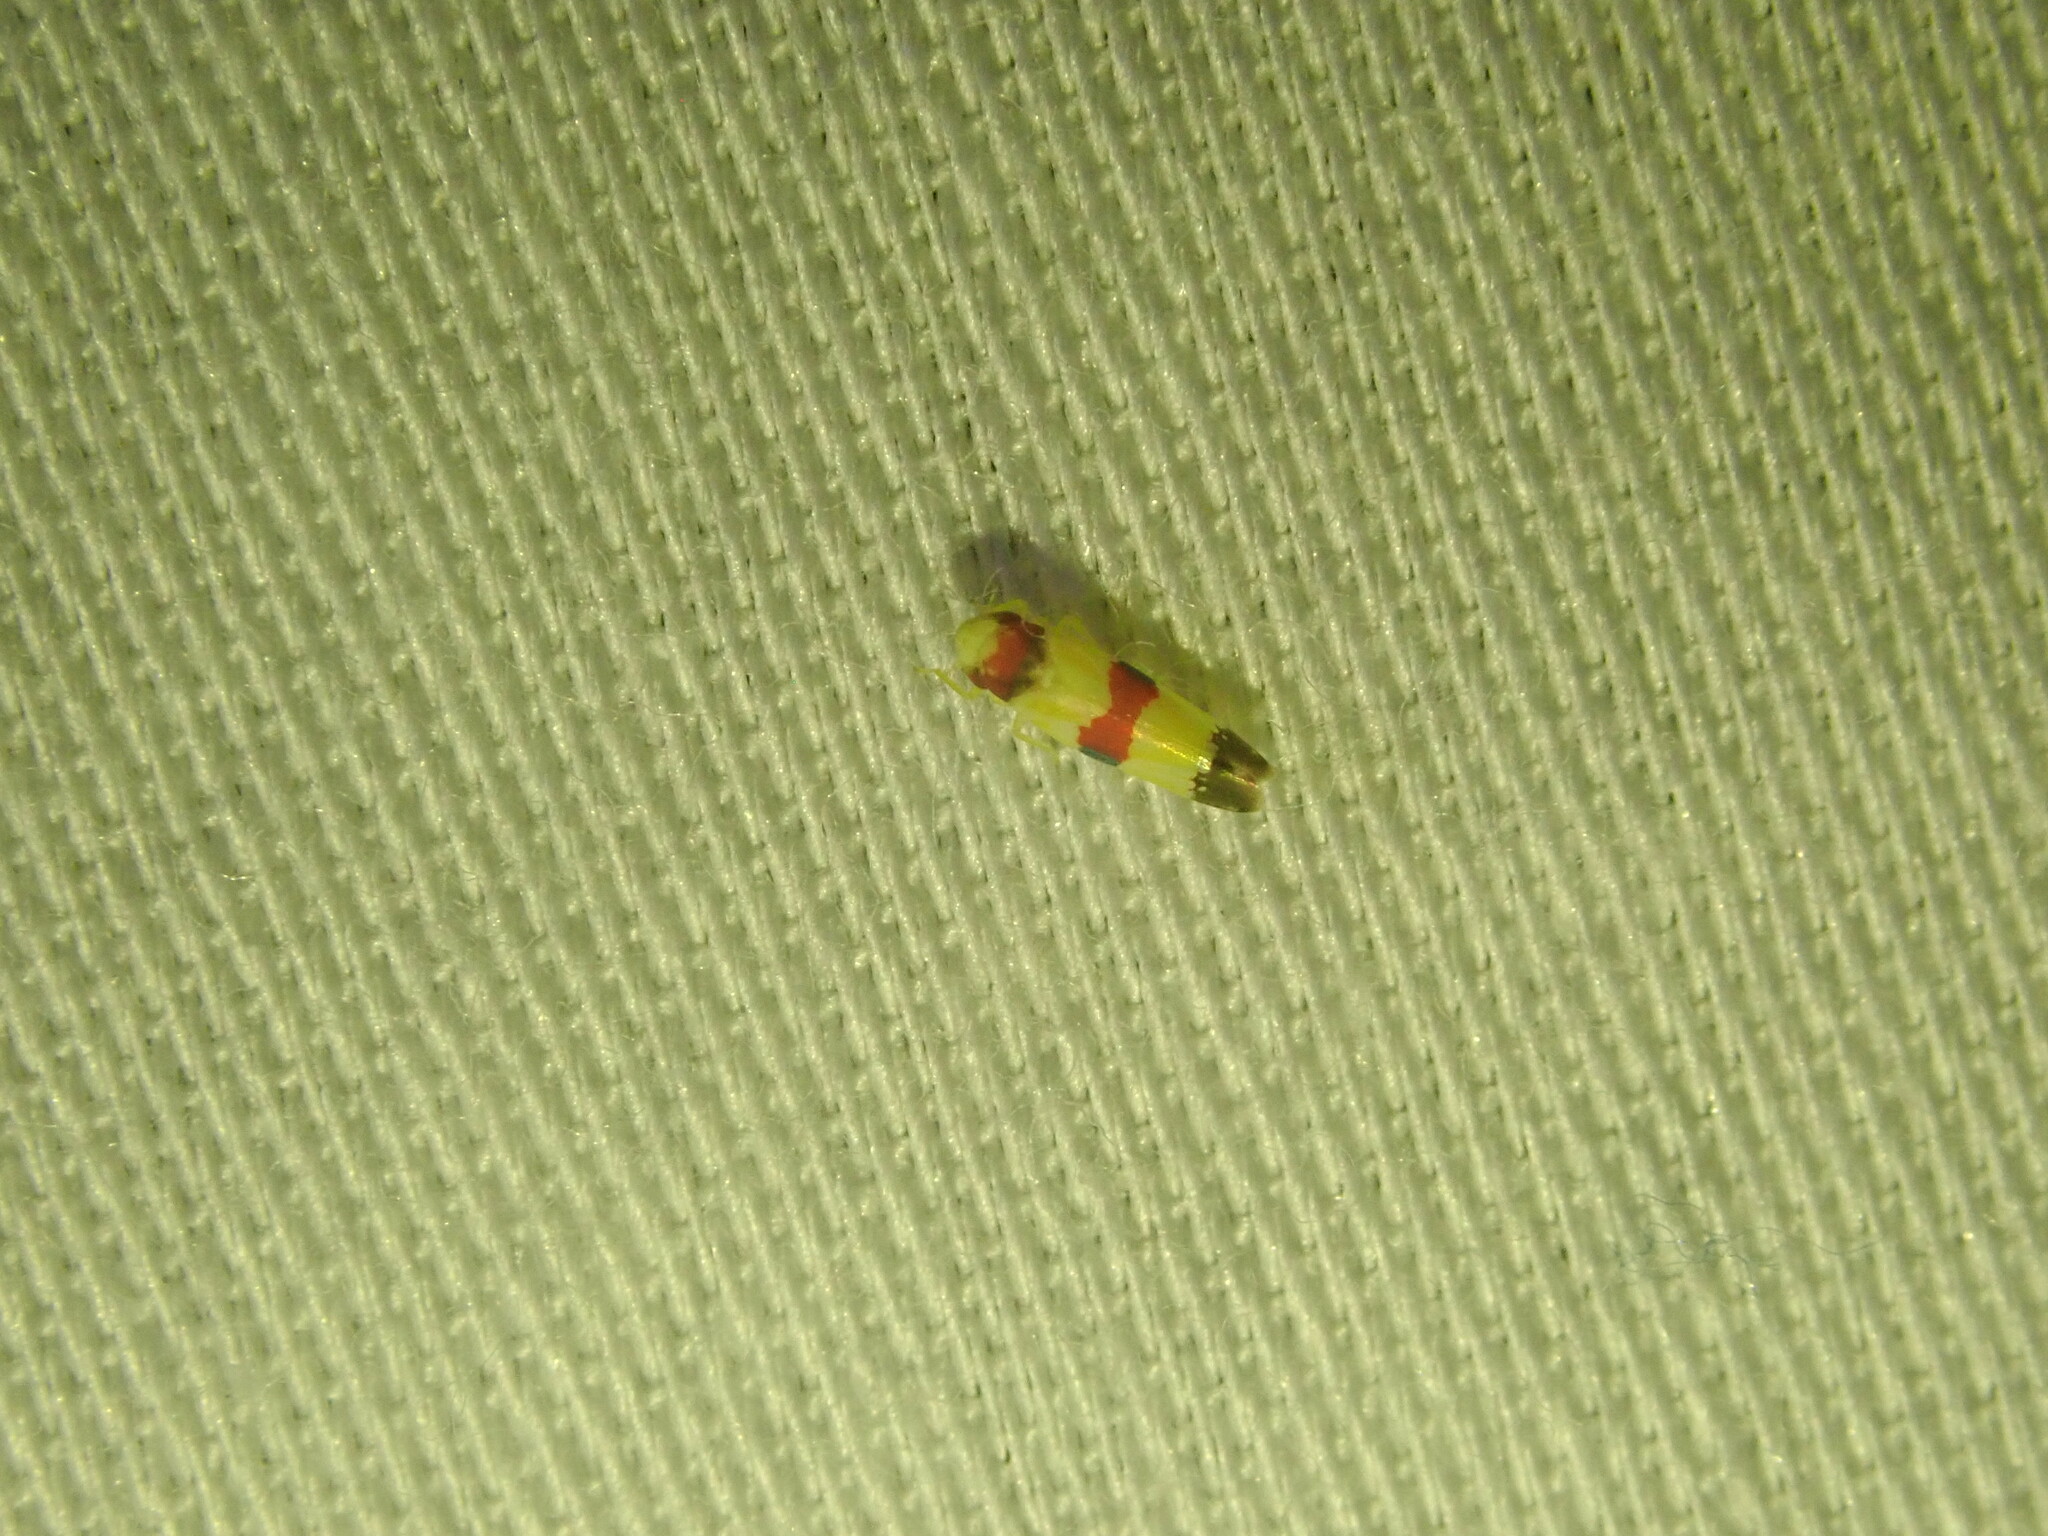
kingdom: Animalia
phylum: Arthropoda
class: Insecta
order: Hemiptera
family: Cicadellidae
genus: Erythroneura
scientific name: Erythroneura diva
